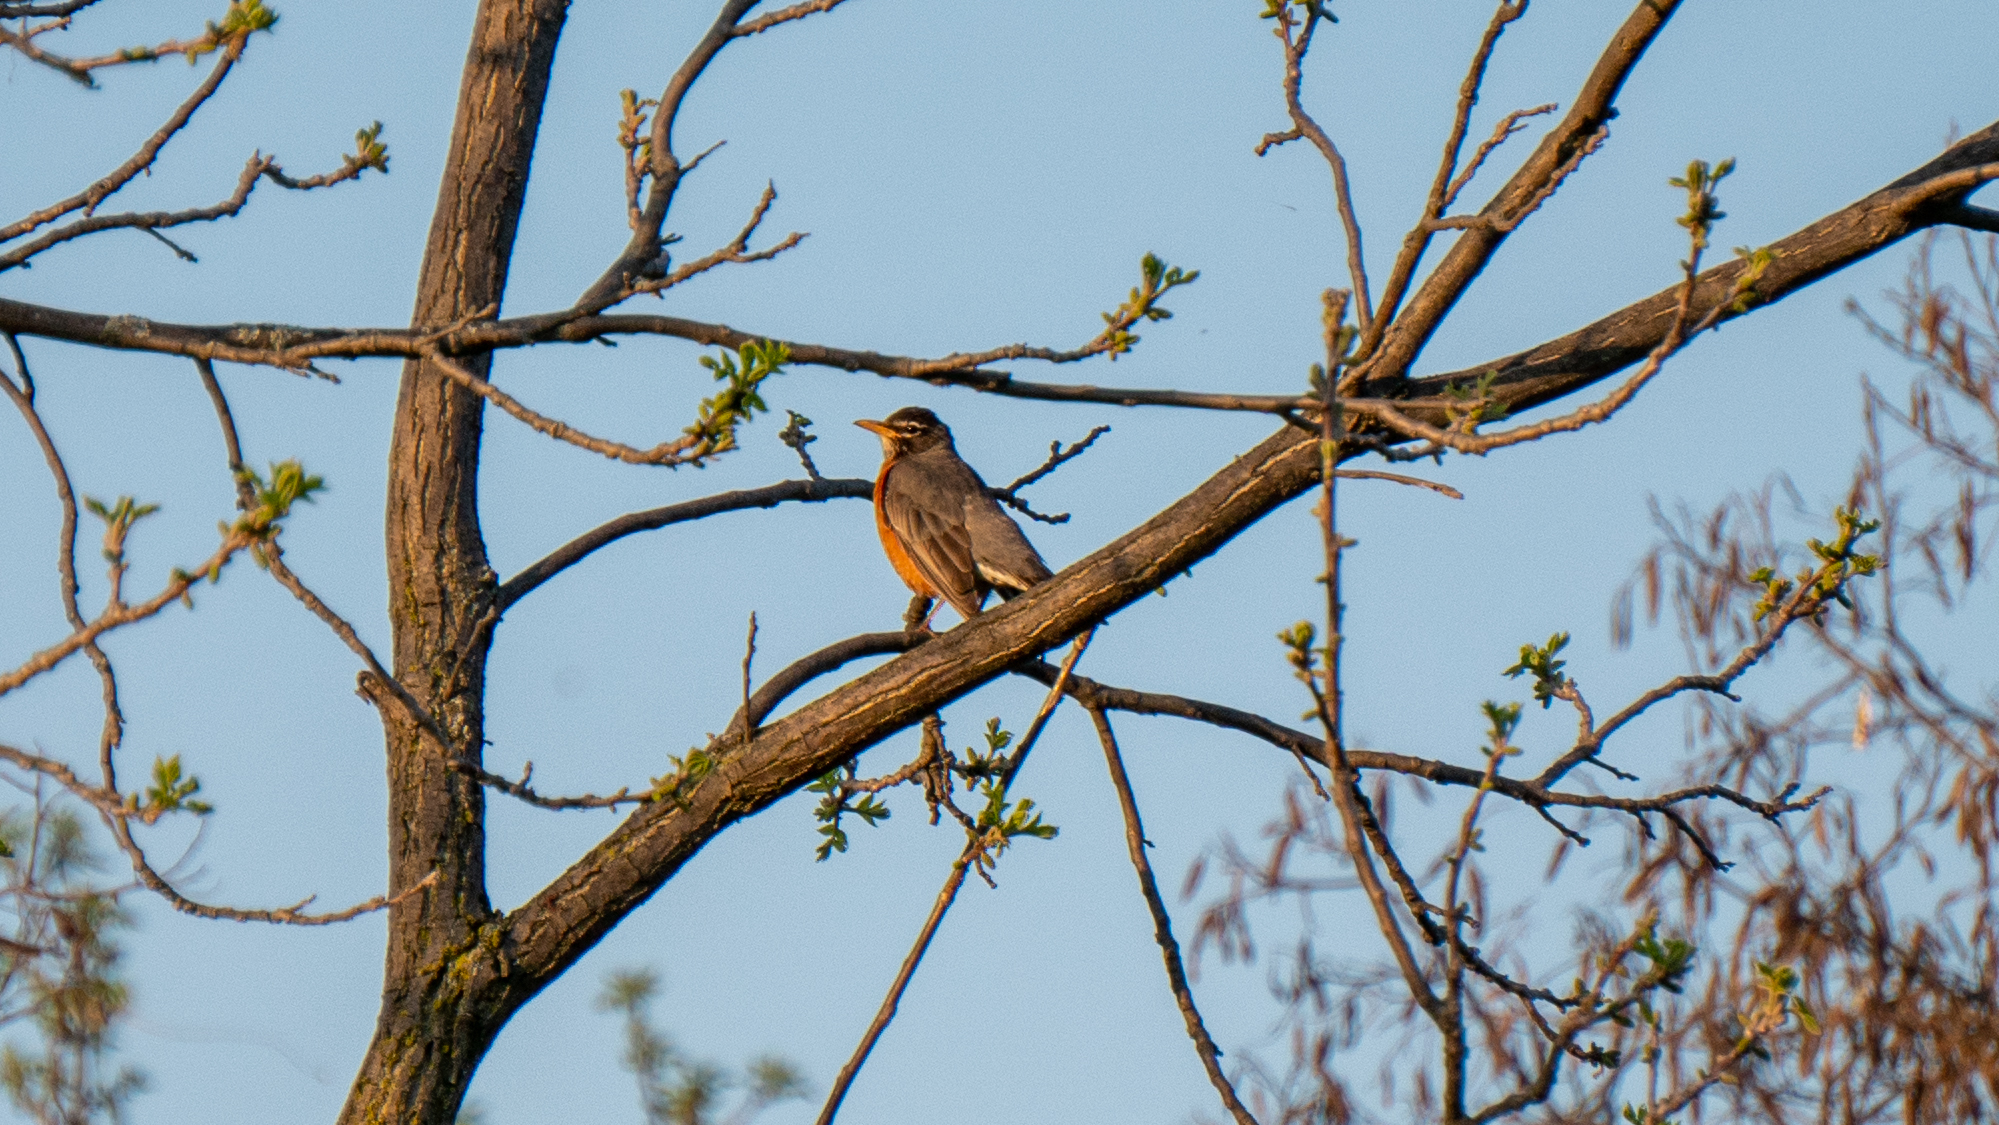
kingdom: Animalia
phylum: Chordata
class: Aves
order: Passeriformes
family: Turdidae
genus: Turdus
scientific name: Turdus migratorius
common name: American robin
